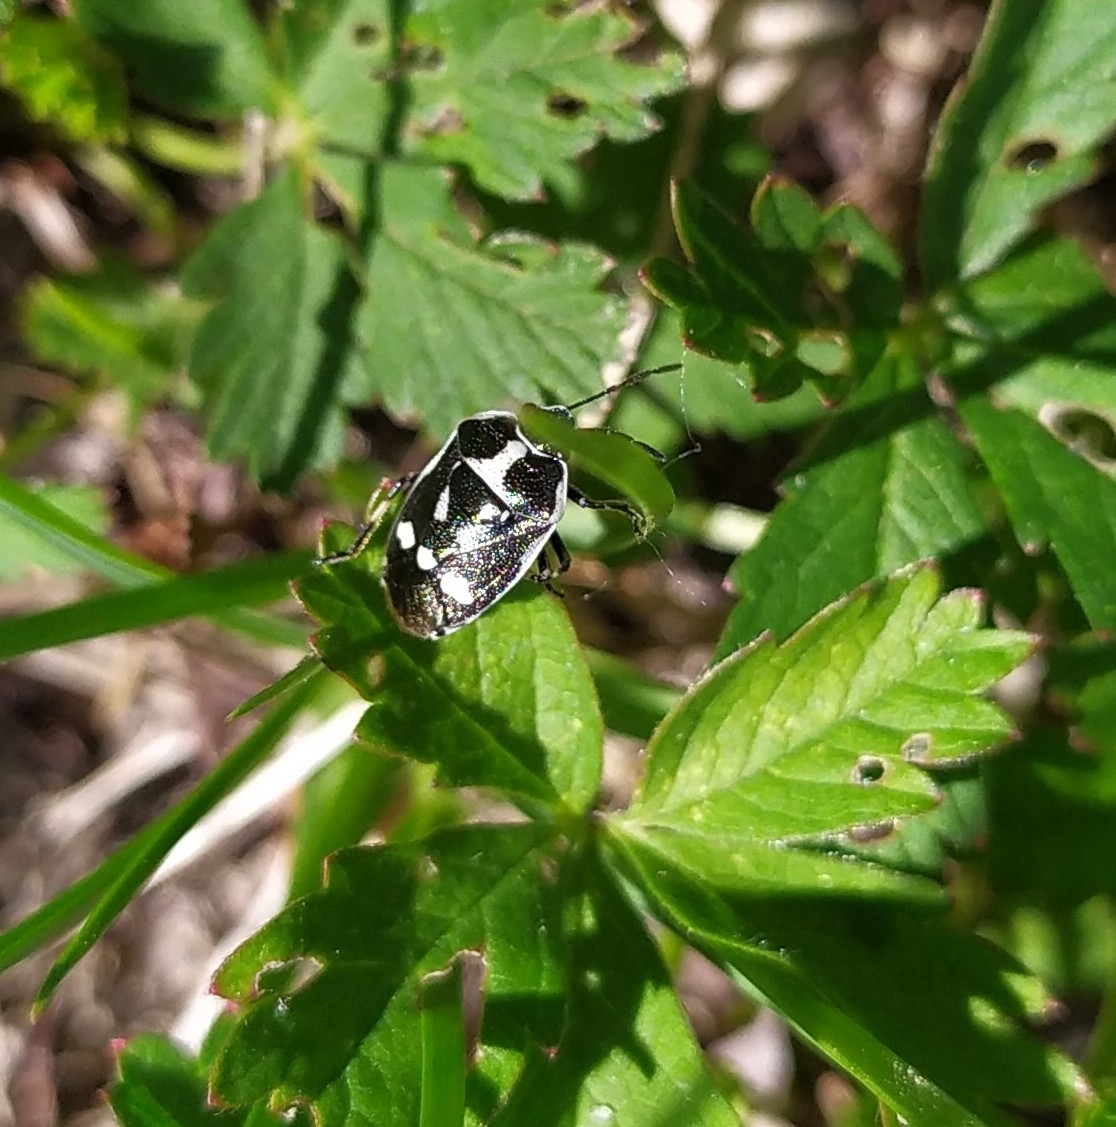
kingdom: Animalia
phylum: Arthropoda
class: Insecta
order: Hemiptera
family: Pentatomidae
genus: Eurydema
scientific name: Eurydema oleracea
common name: Cabbage bug
